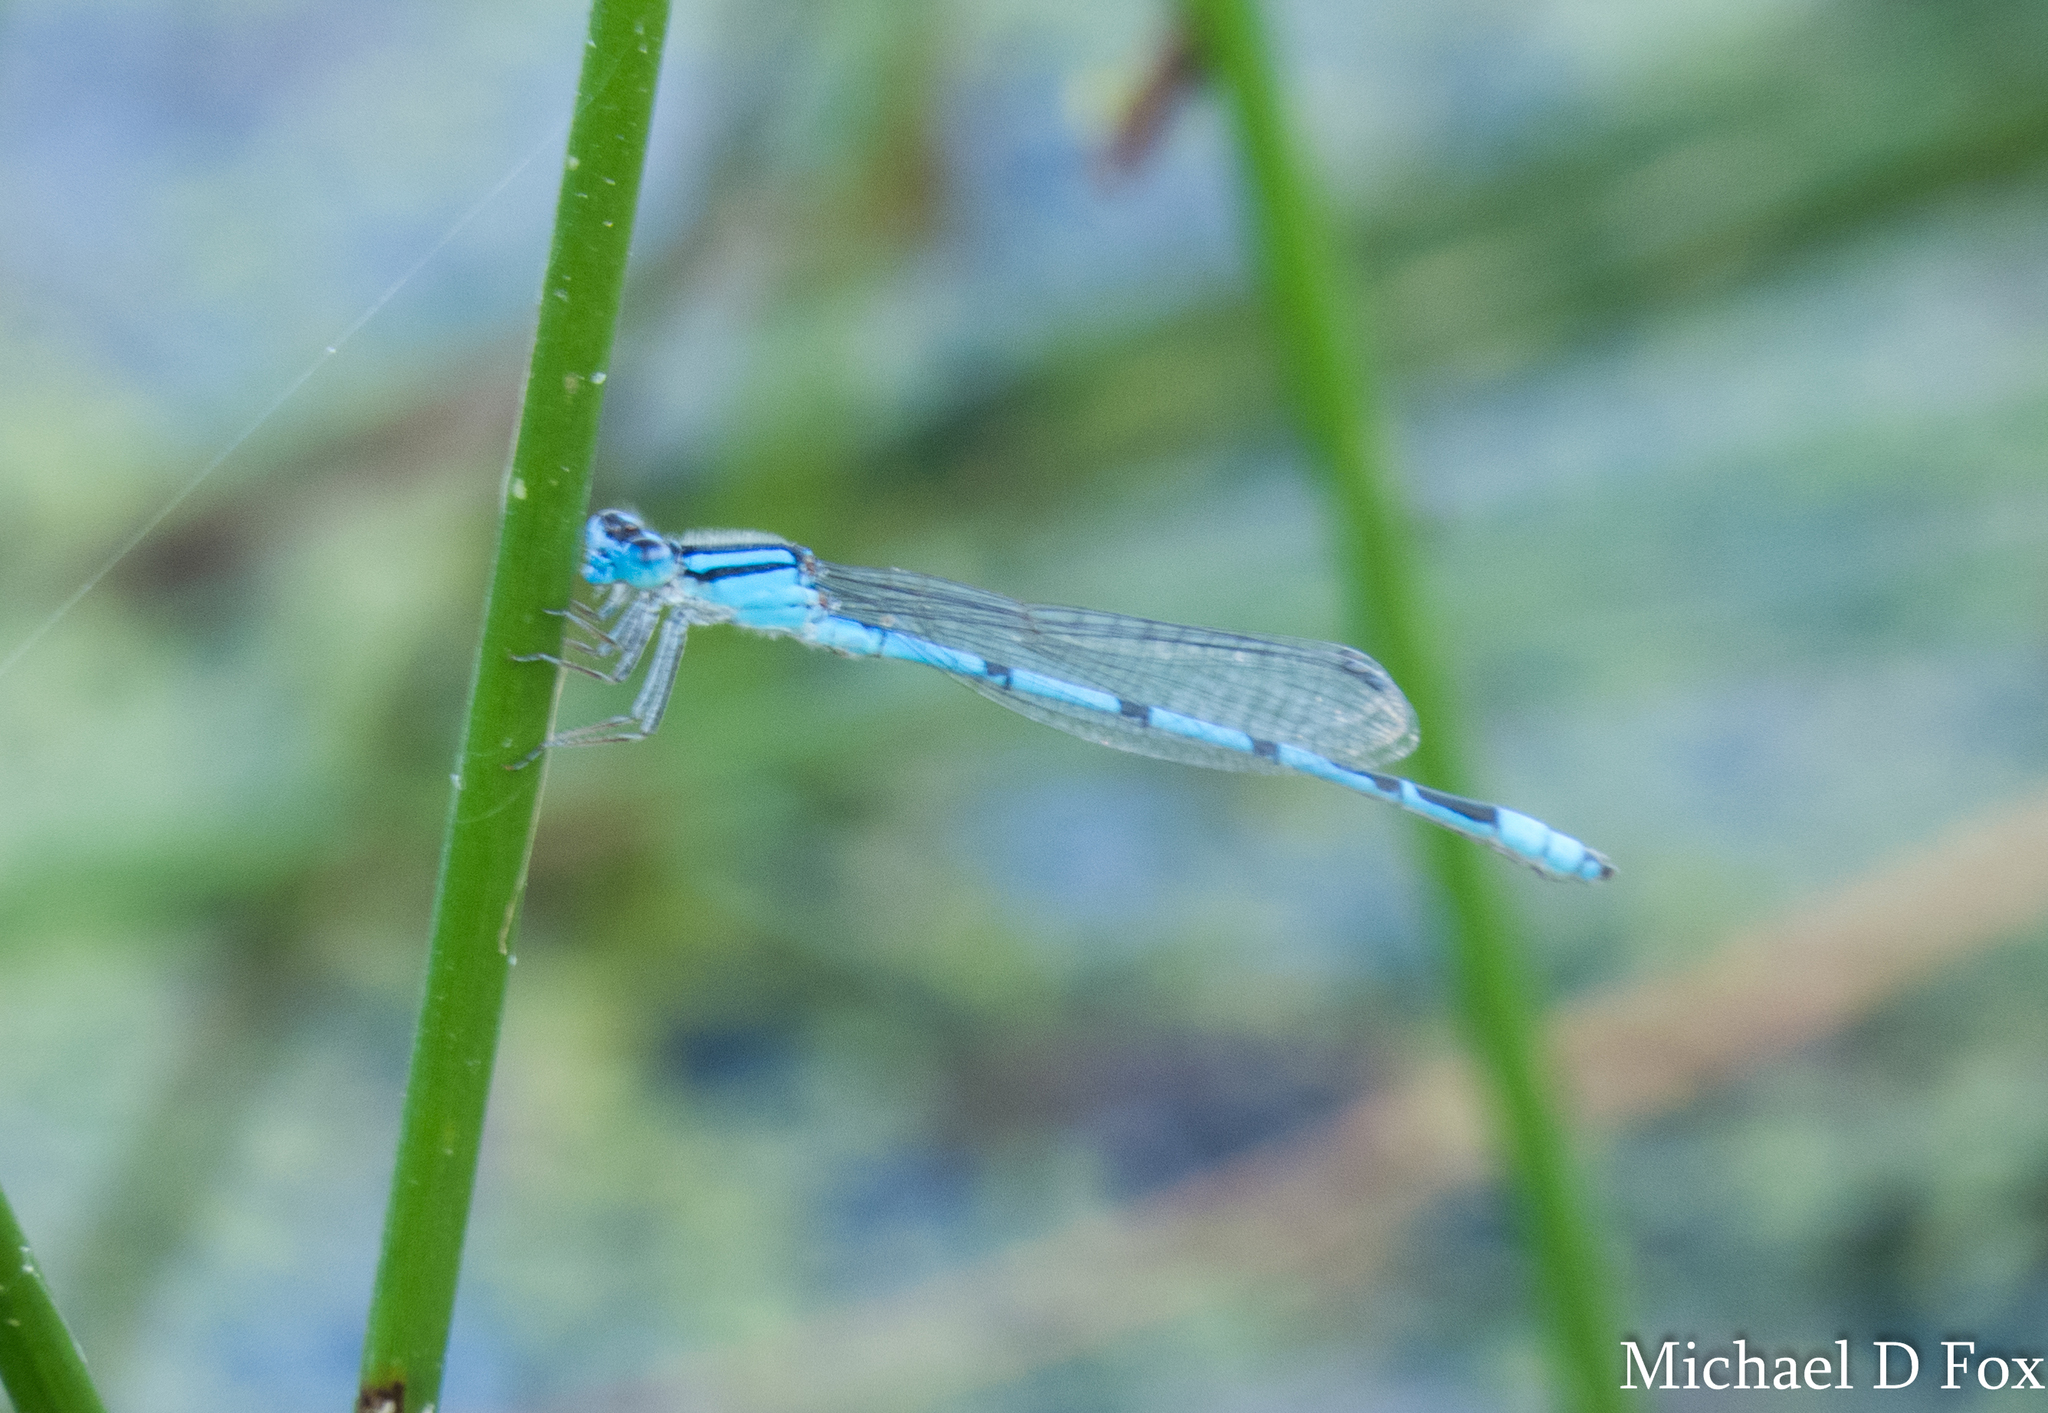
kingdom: Animalia
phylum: Arthropoda
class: Insecta
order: Odonata
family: Coenagrionidae
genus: Enallagma
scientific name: Enallagma civile
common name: Damselfly
